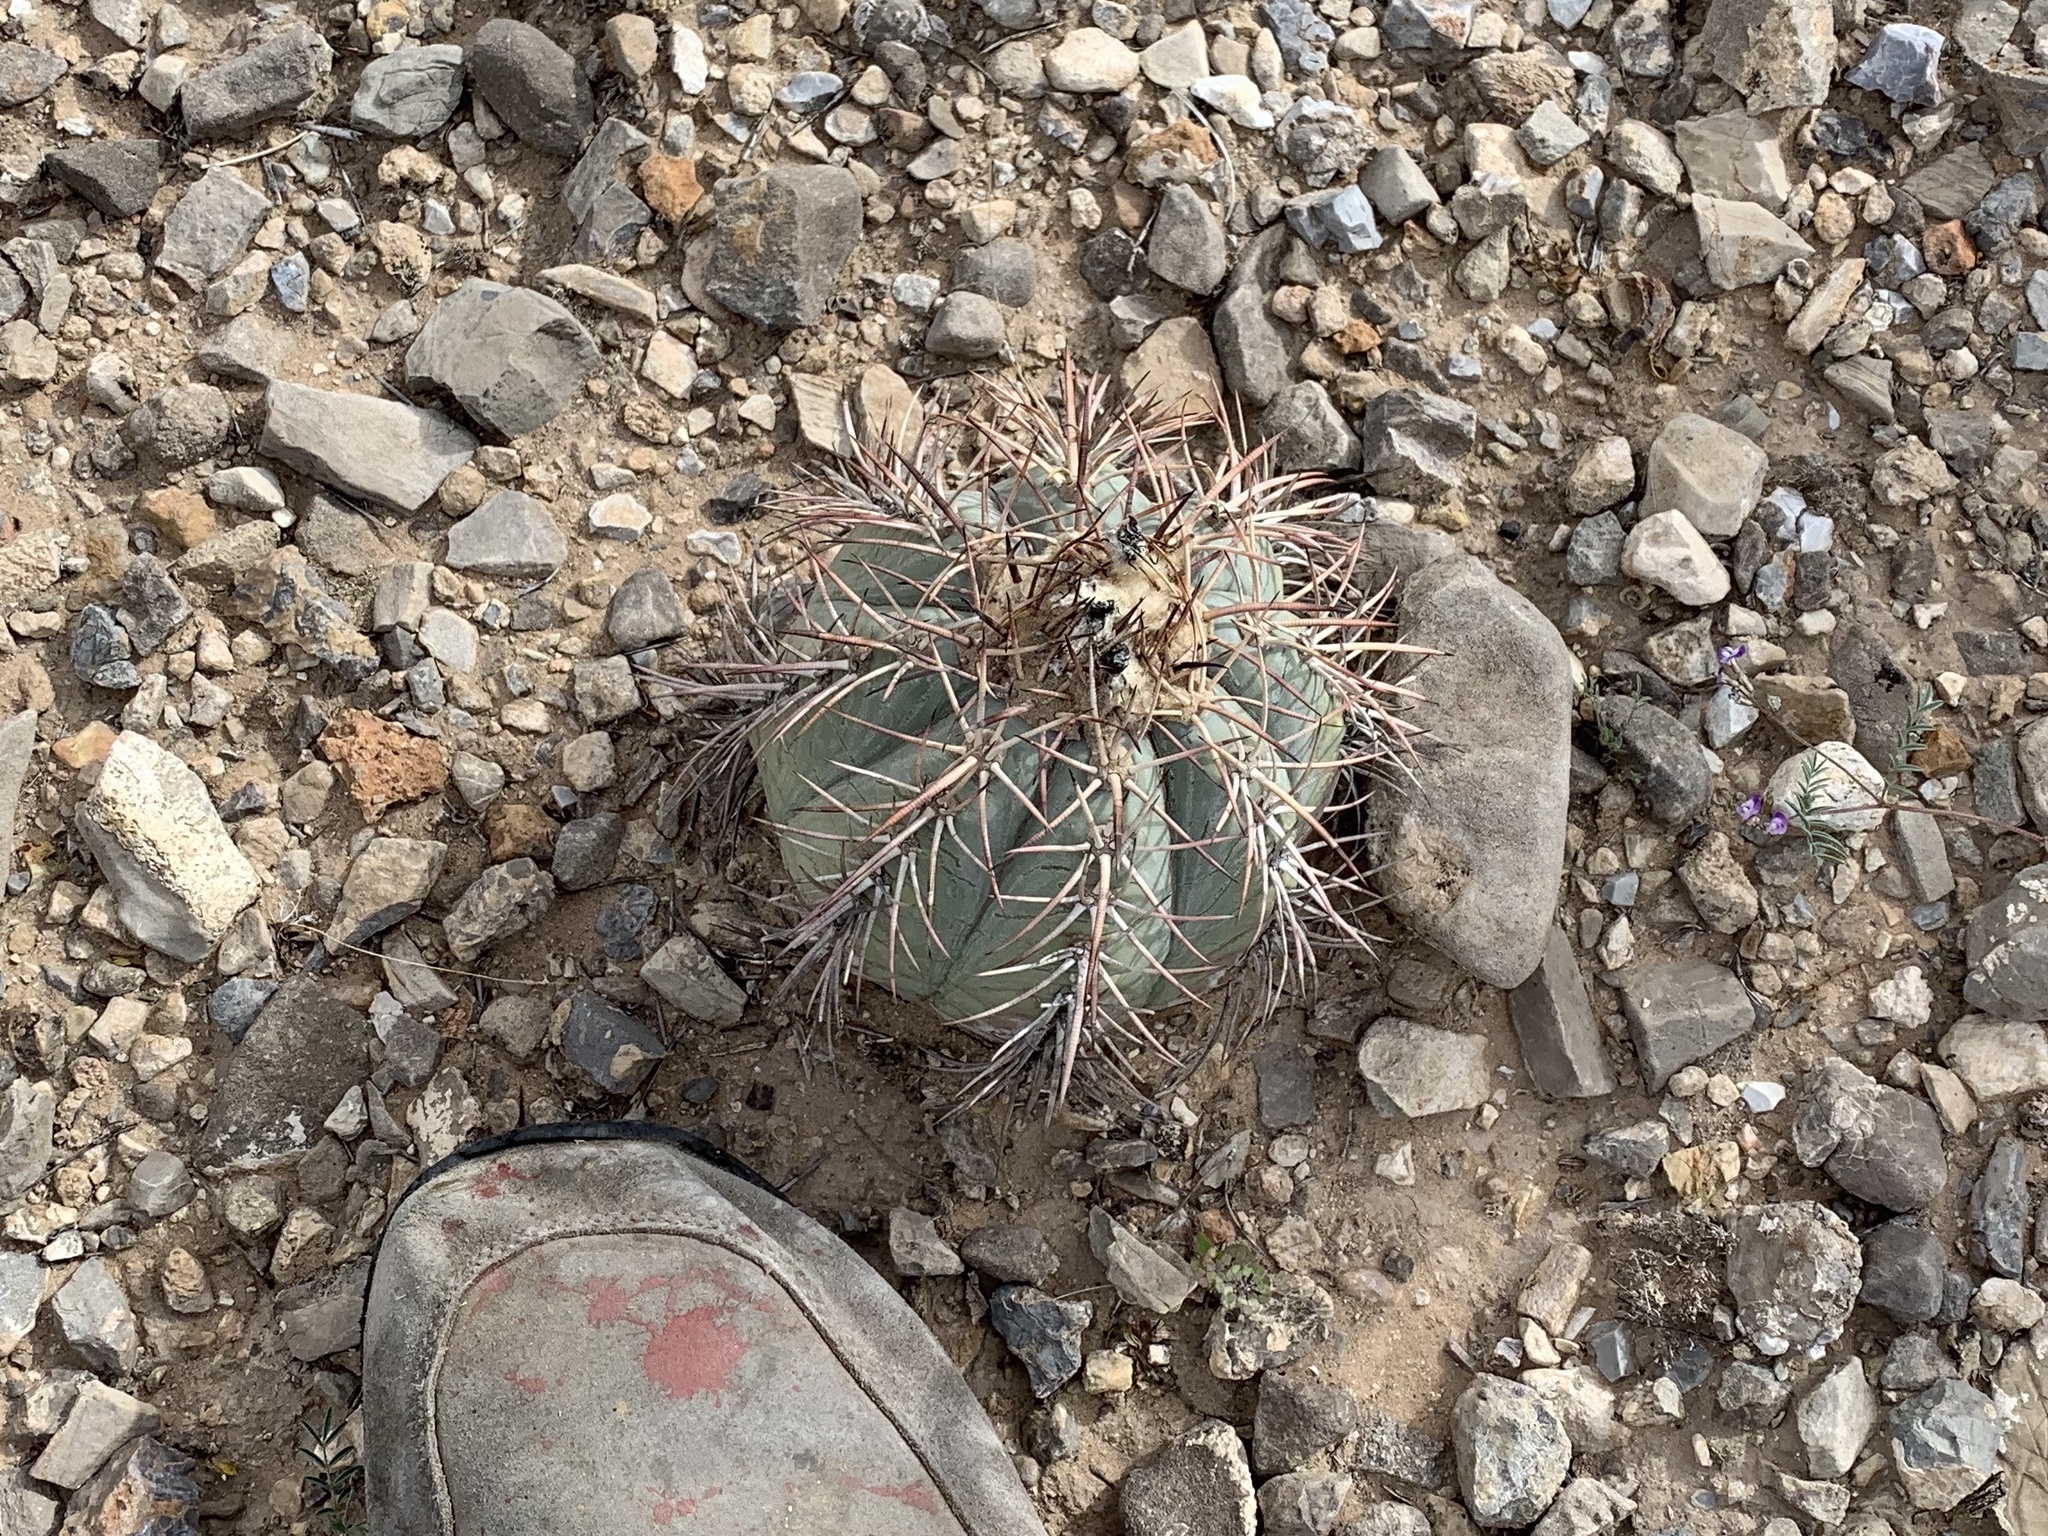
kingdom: Plantae
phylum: Tracheophyta
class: Magnoliopsida
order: Caryophyllales
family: Cactaceae
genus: Echinocactus
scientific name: Echinocactus horizonthalonius
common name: Devilshead
